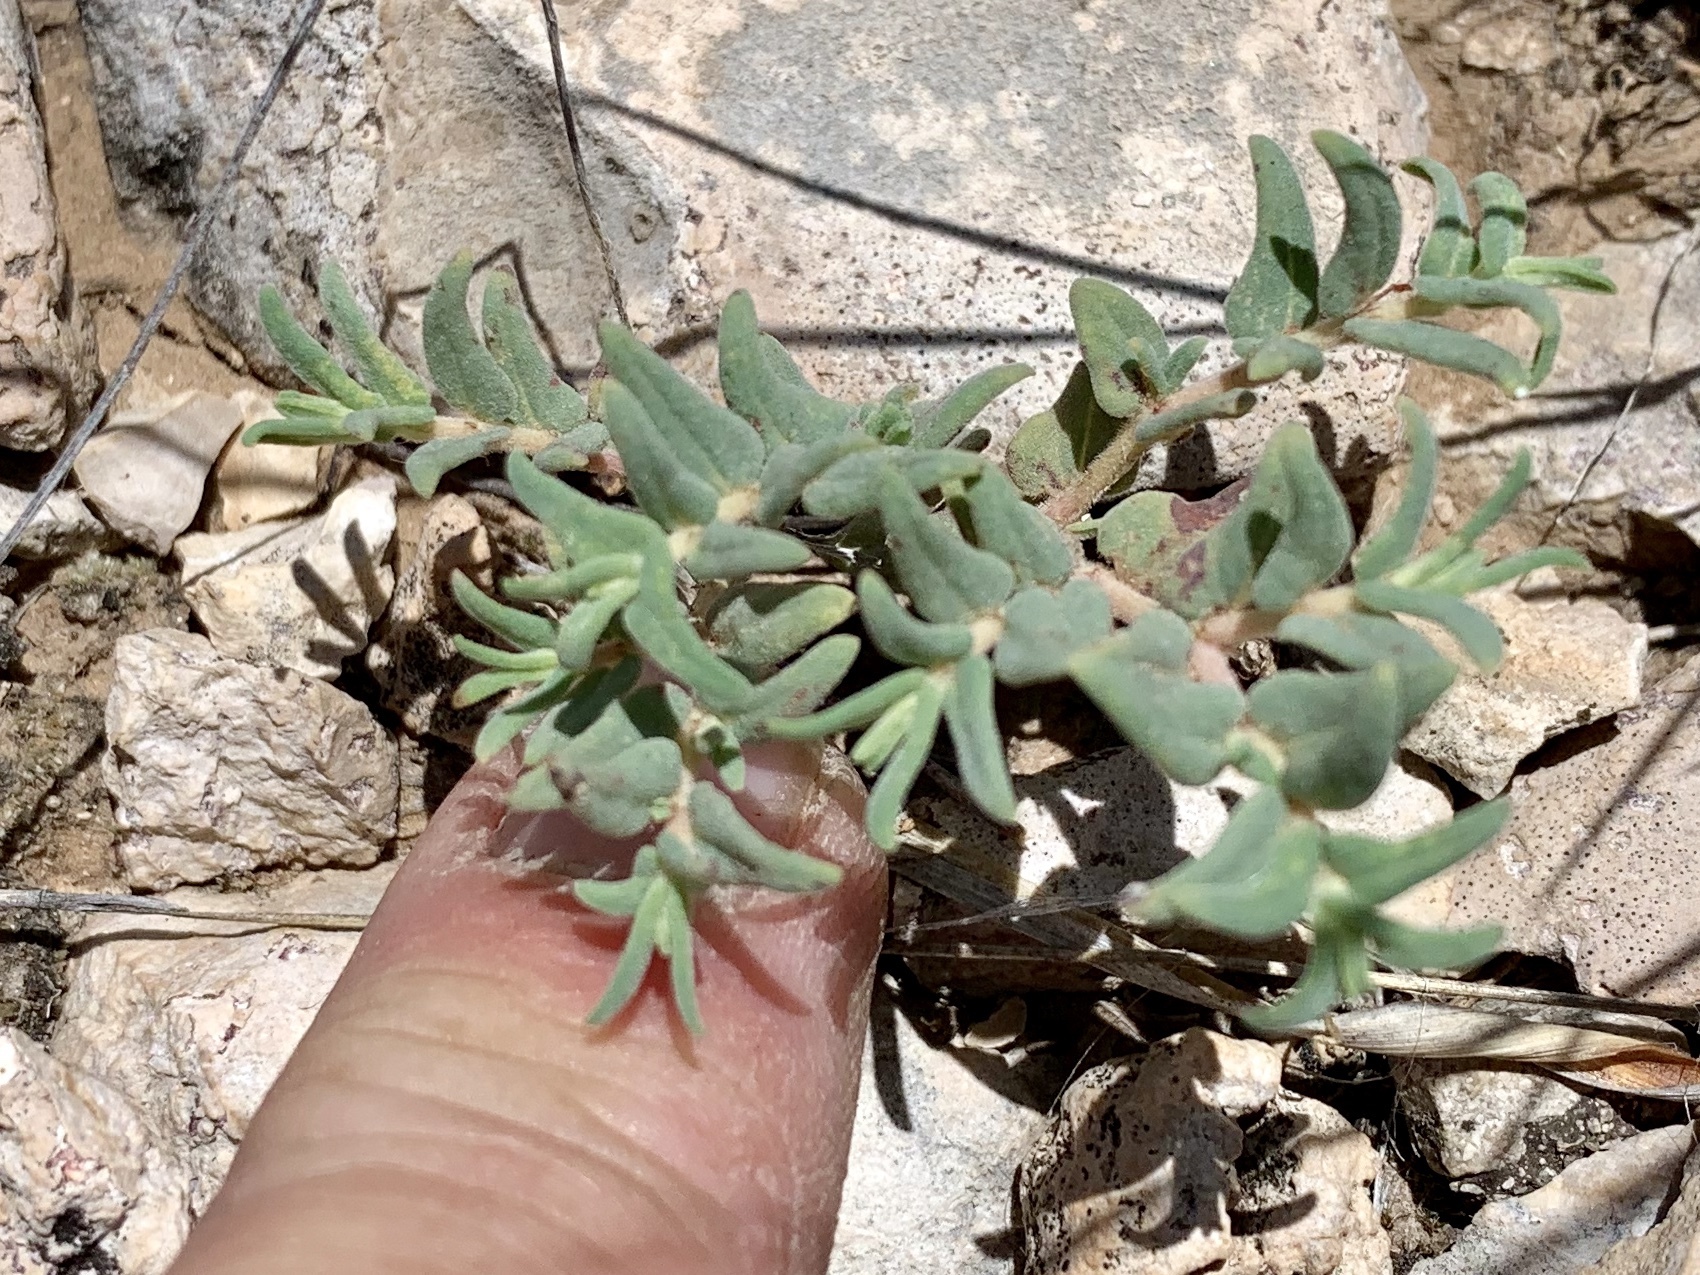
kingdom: Plantae
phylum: Tracheophyta
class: Magnoliopsida
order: Malpighiales
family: Euphorbiaceae
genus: Euphorbia
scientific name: Euphorbia lata
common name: Hoary euphorbia
